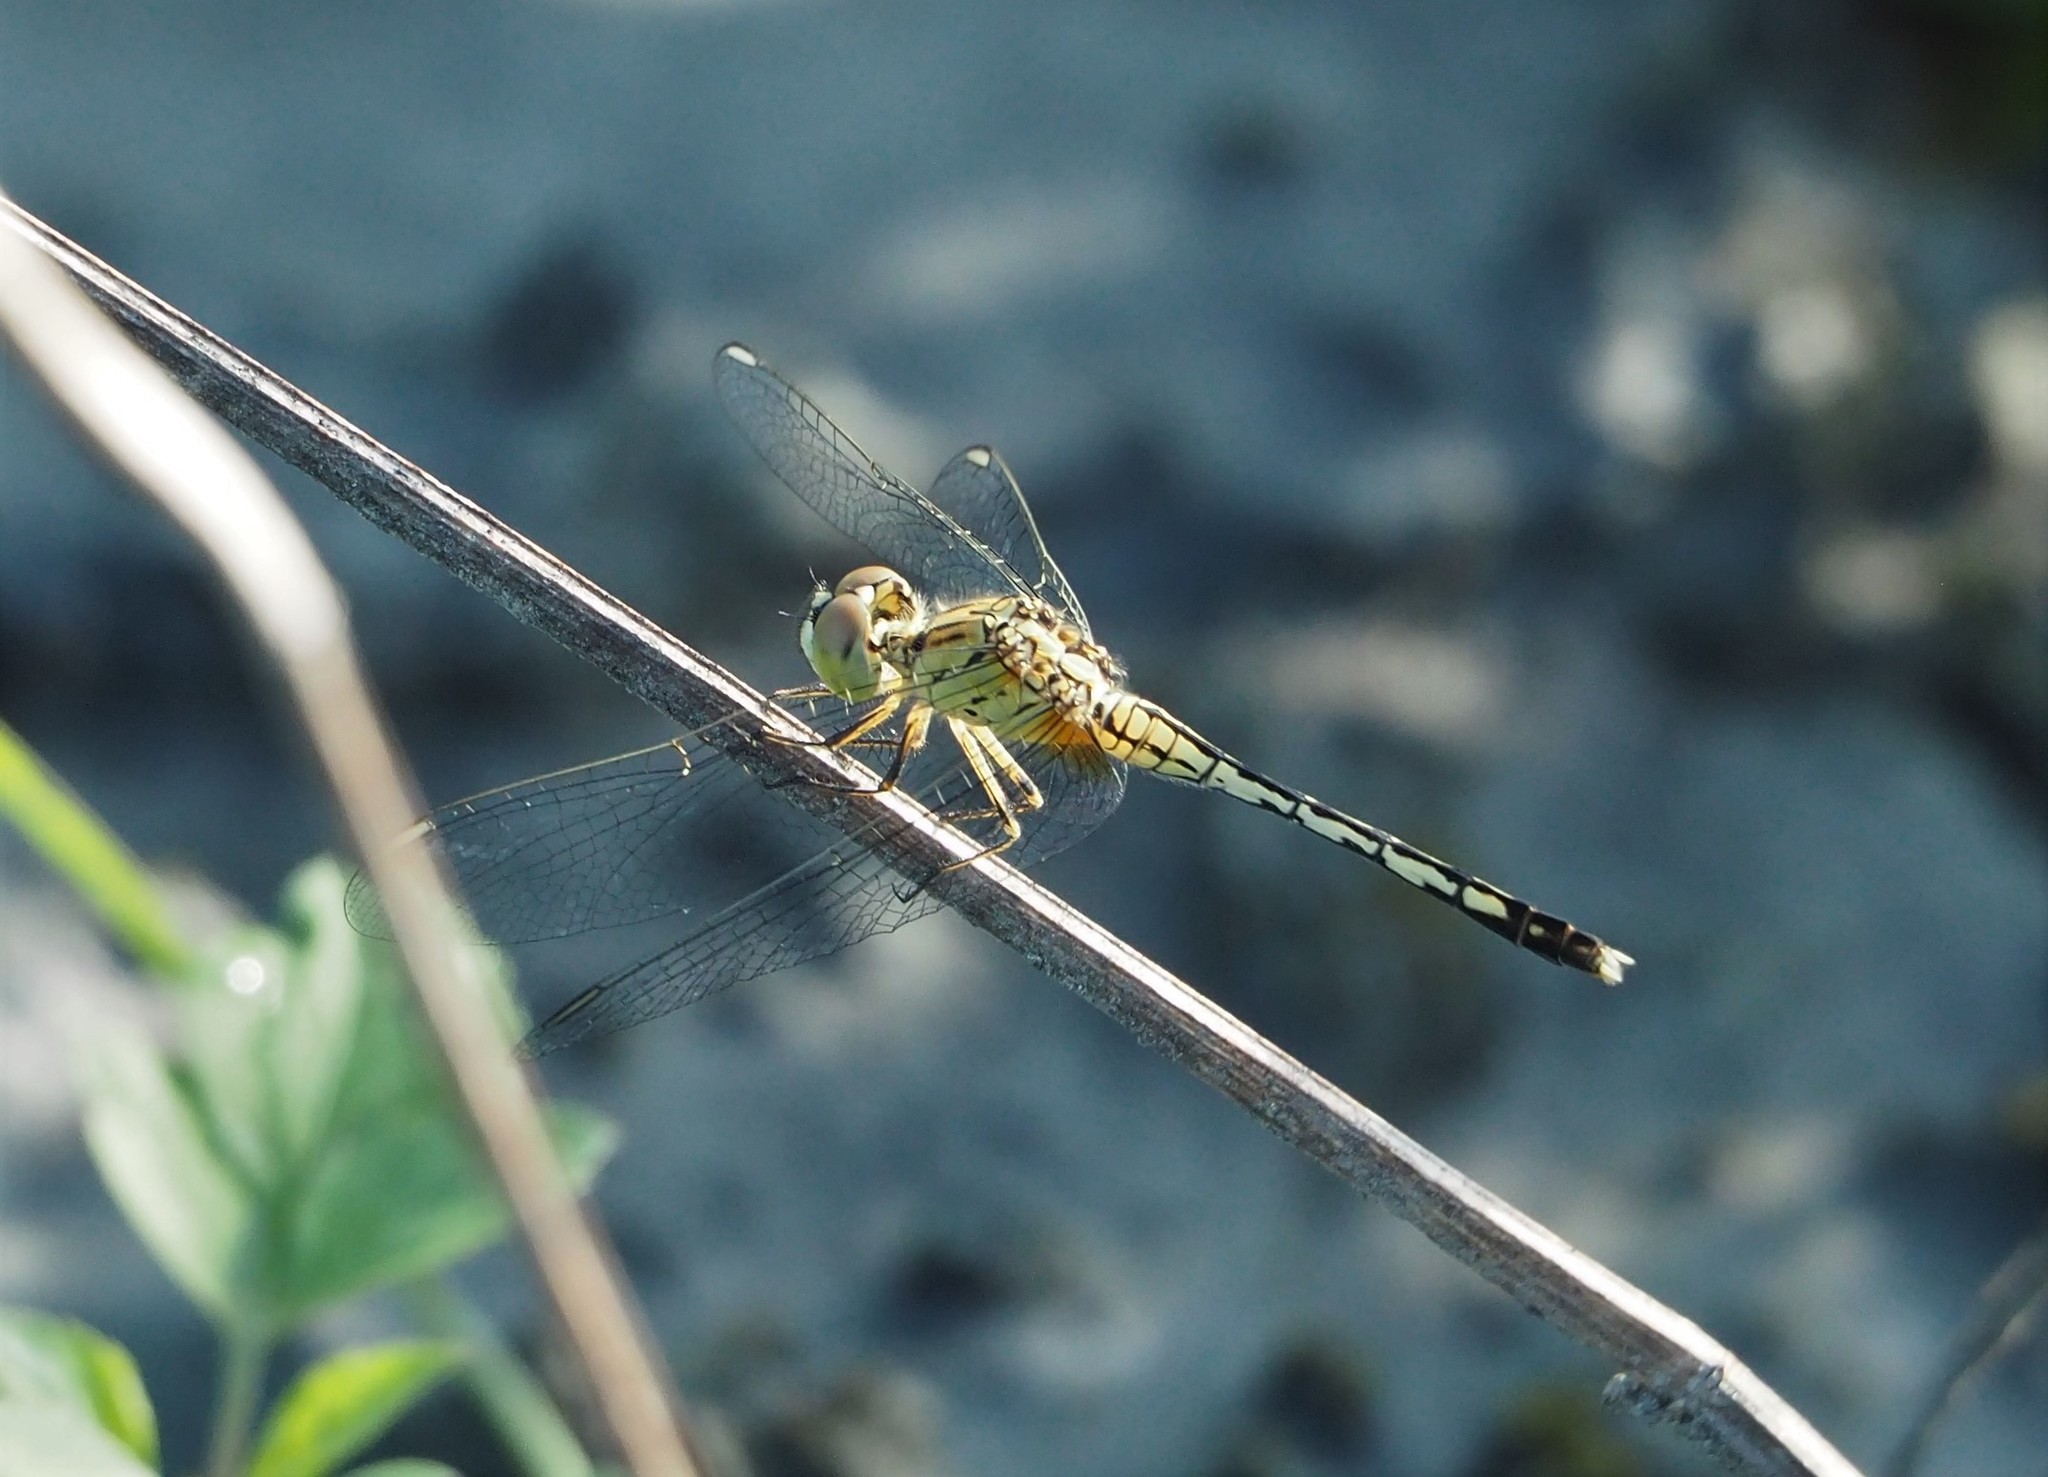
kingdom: Animalia
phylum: Arthropoda
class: Insecta
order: Odonata
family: Libellulidae
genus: Diplacodes
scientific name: Diplacodes trivialis
